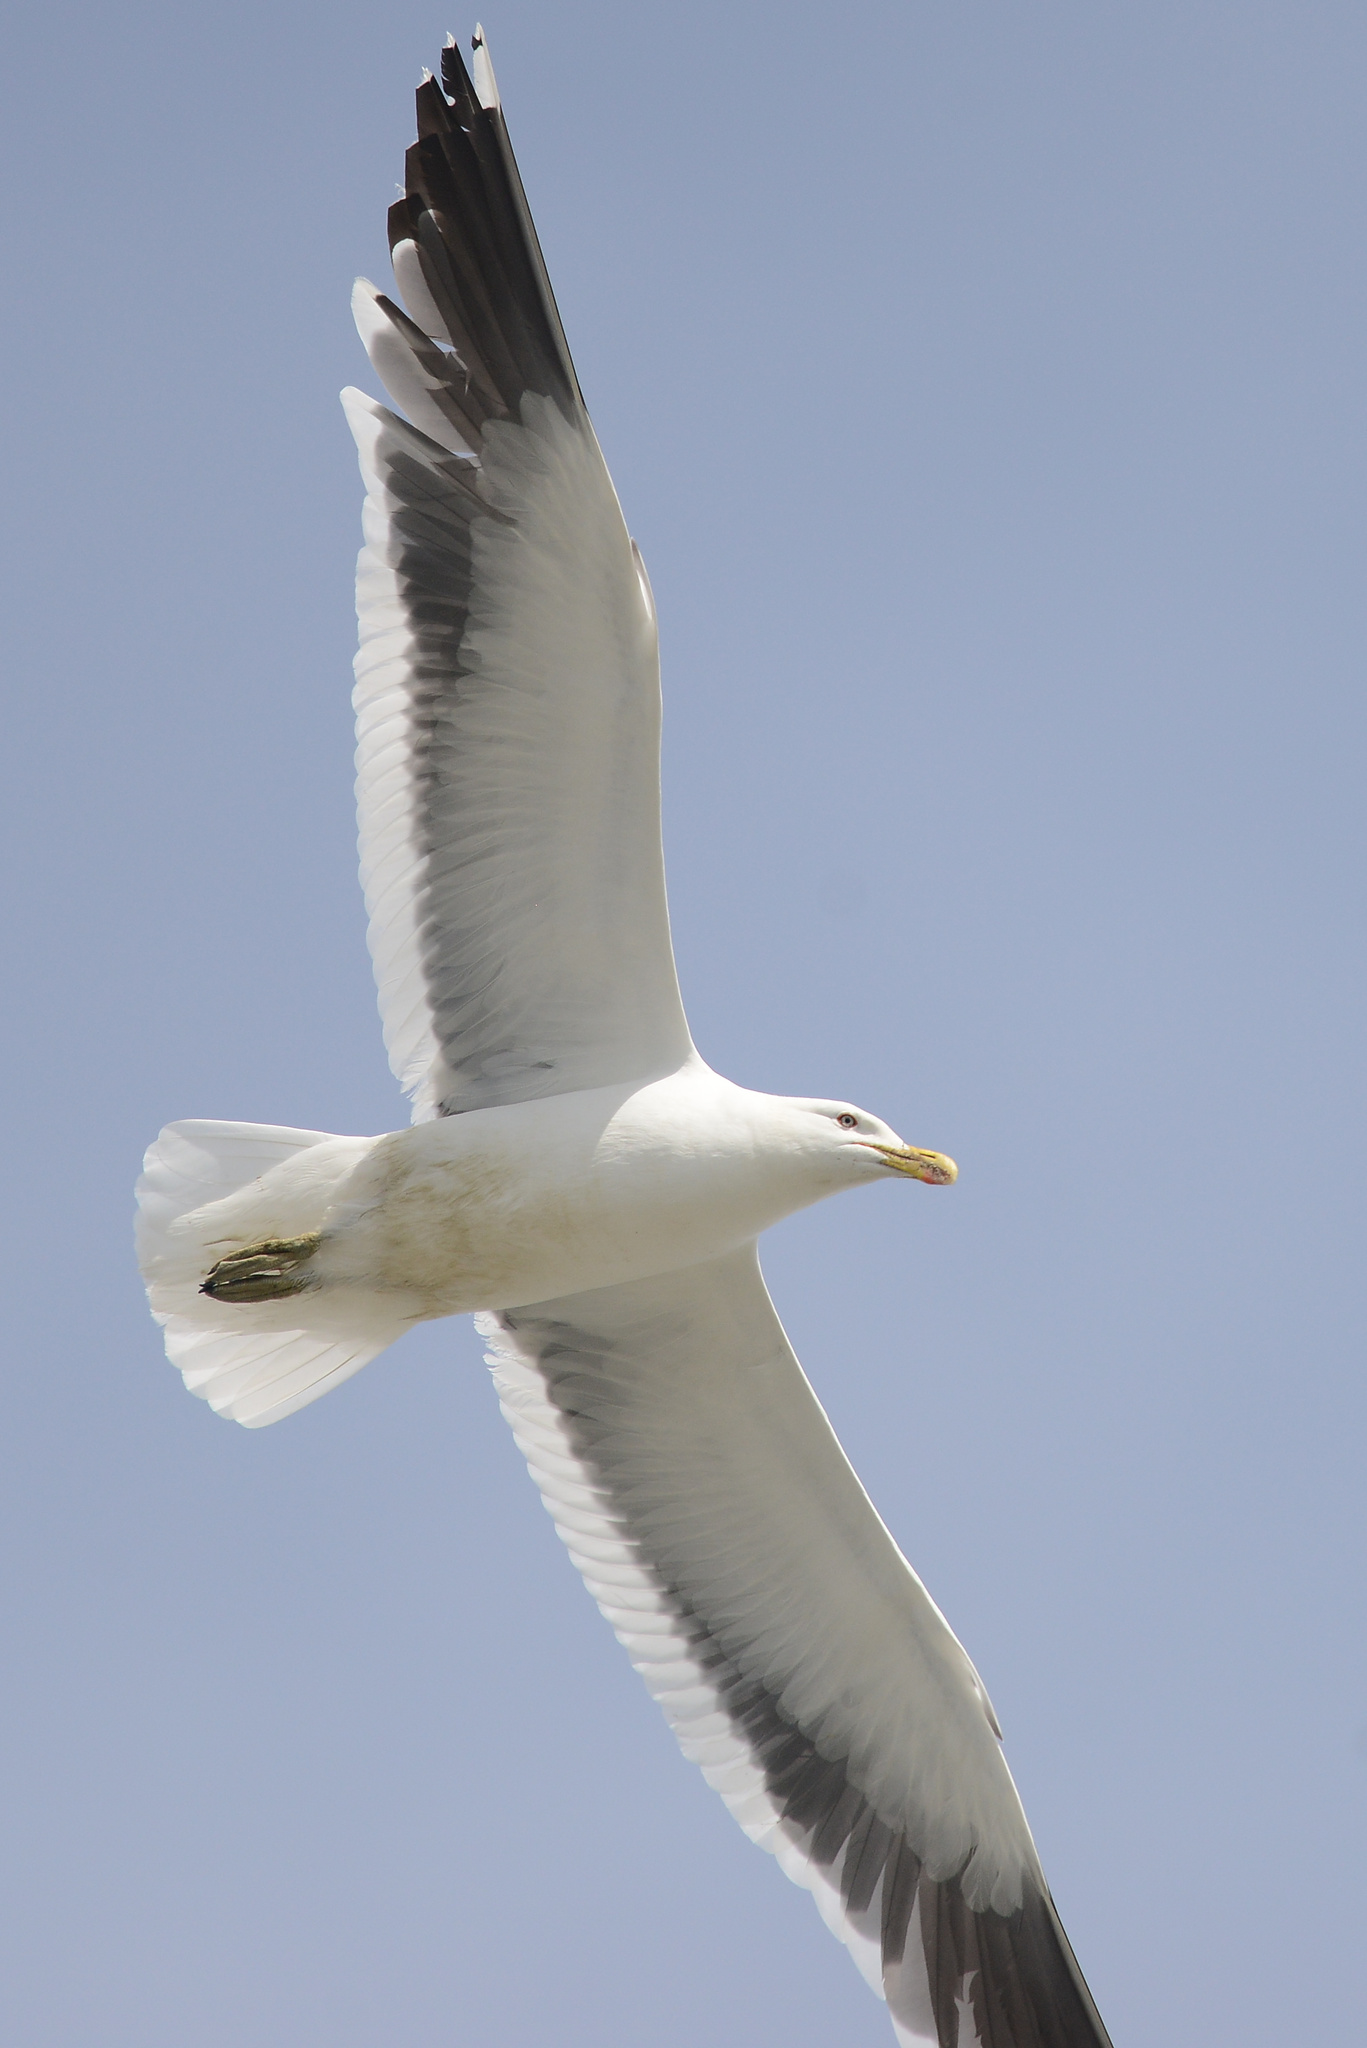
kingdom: Animalia
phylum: Chordata
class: Aves
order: Charadriiformes
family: Laridae
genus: Larus
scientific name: Larus dominicanus
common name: Kelp gull
